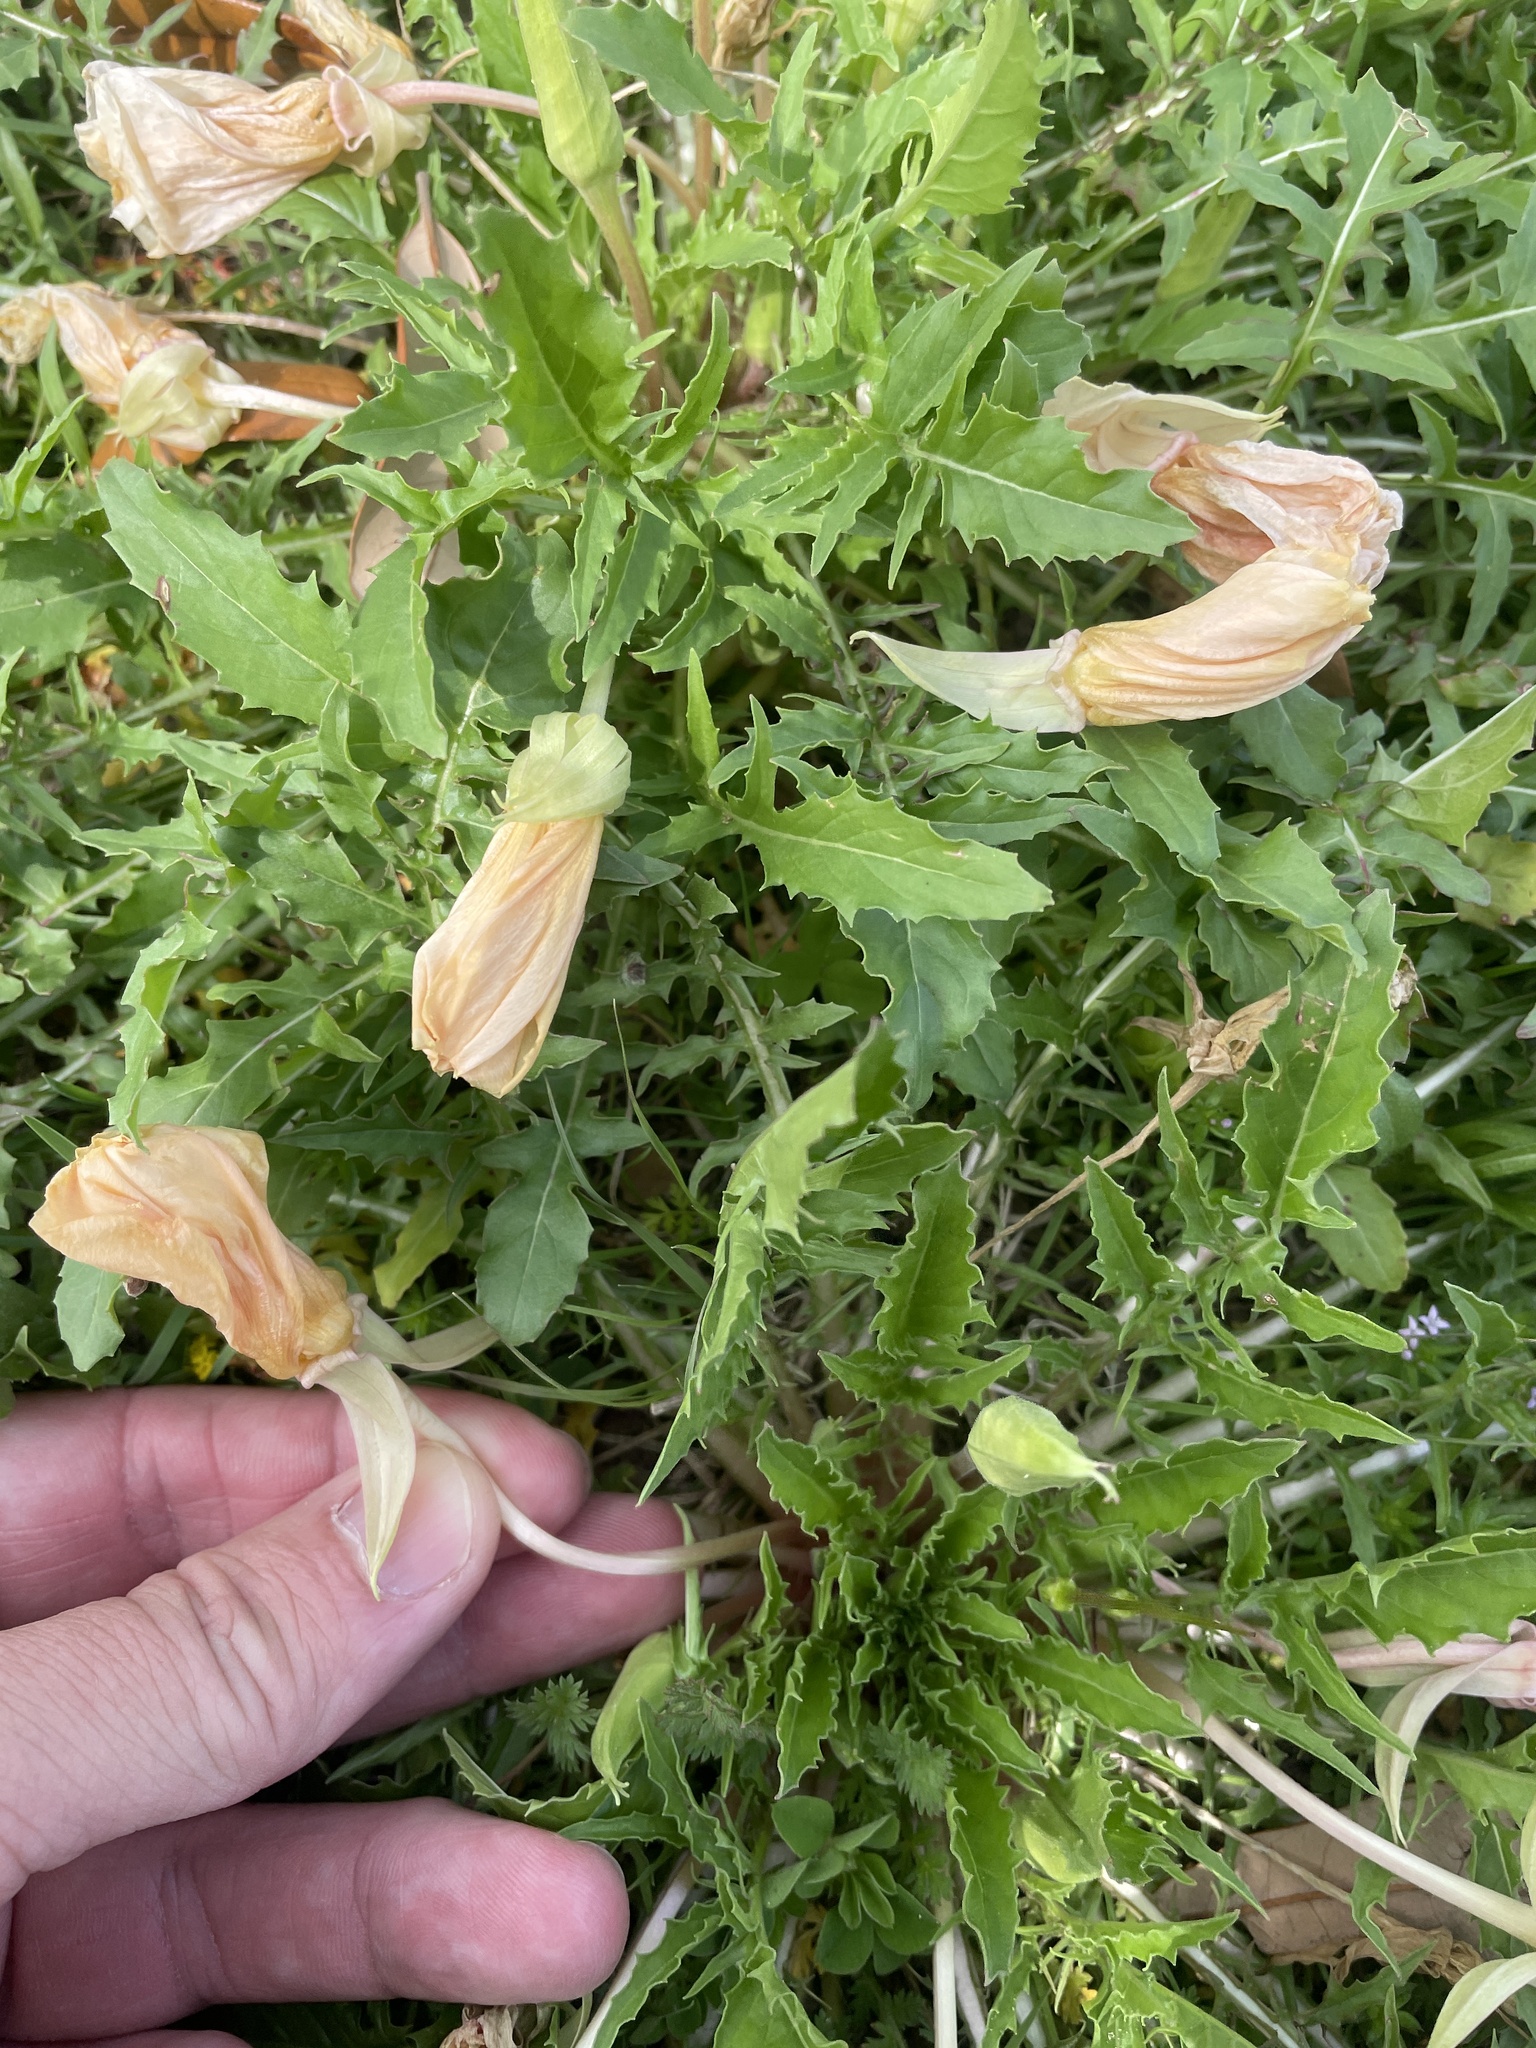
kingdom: Plantae
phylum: Tracheophyta
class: Magnoliopsida
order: Myrtales
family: Onagraceae
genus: Oenothera
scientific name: Oenothera triloba
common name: Sessile evening-primrose
